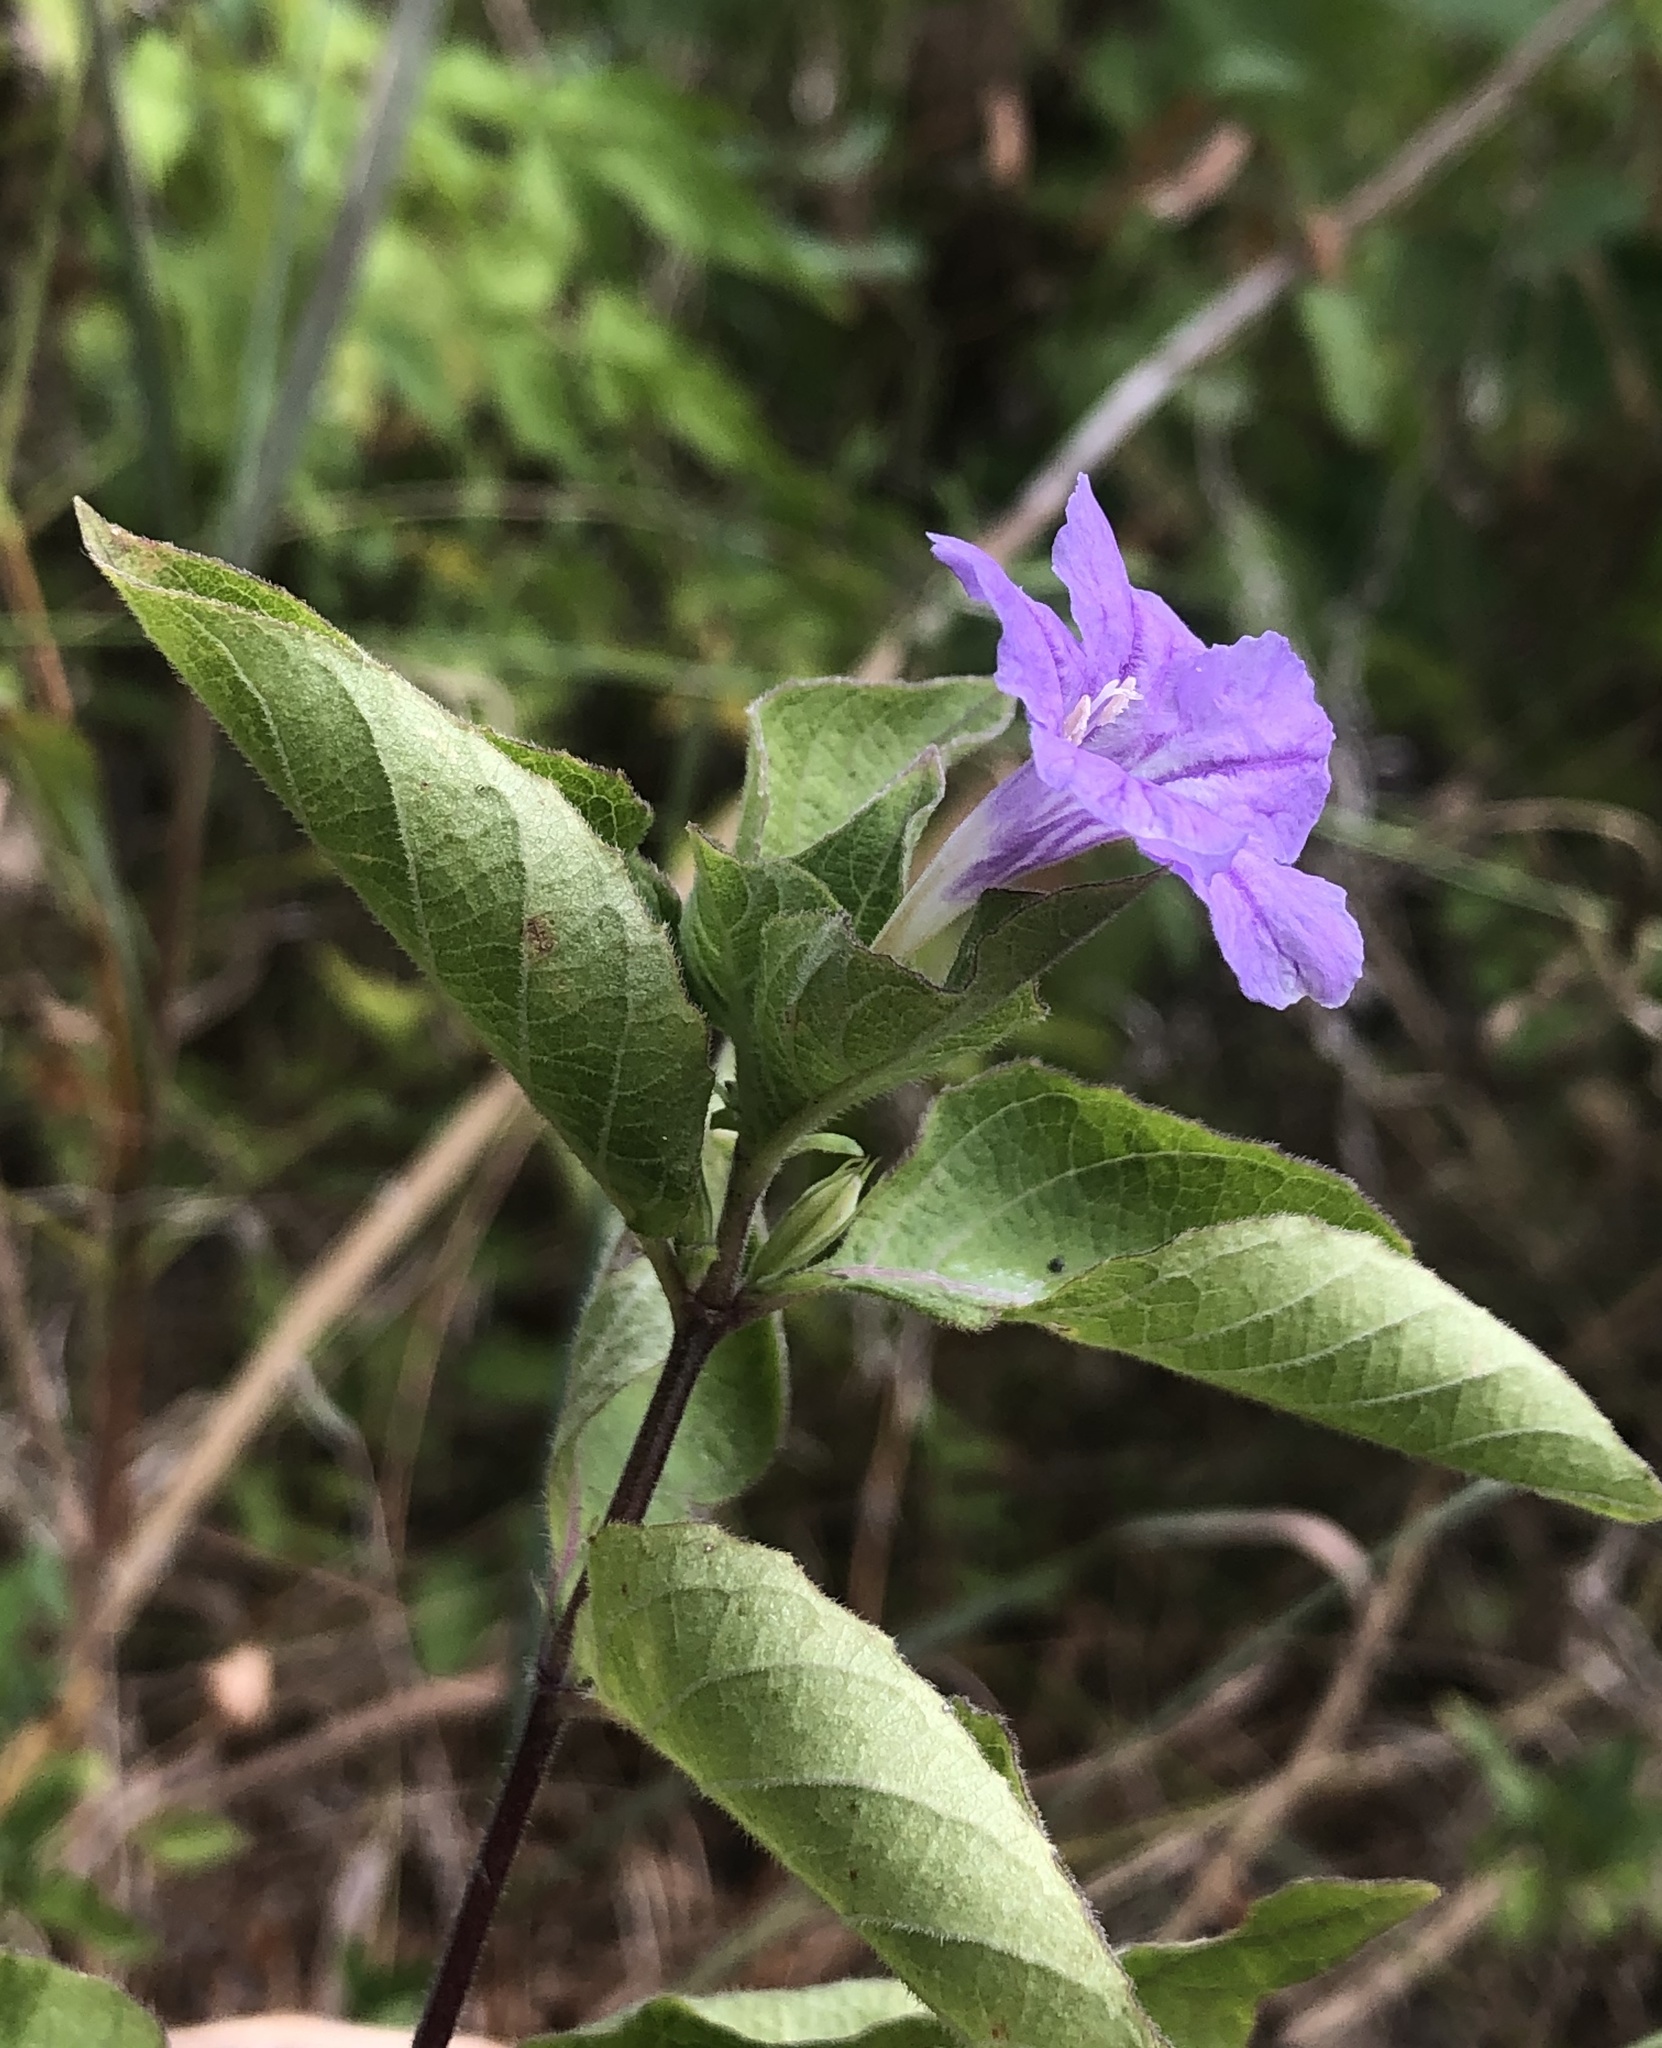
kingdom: Plantae
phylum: Tracheophyta
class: Magnoliopsida
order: Lamiales
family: Acanthaceae
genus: Ruellia
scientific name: Ruellia drummondiana
